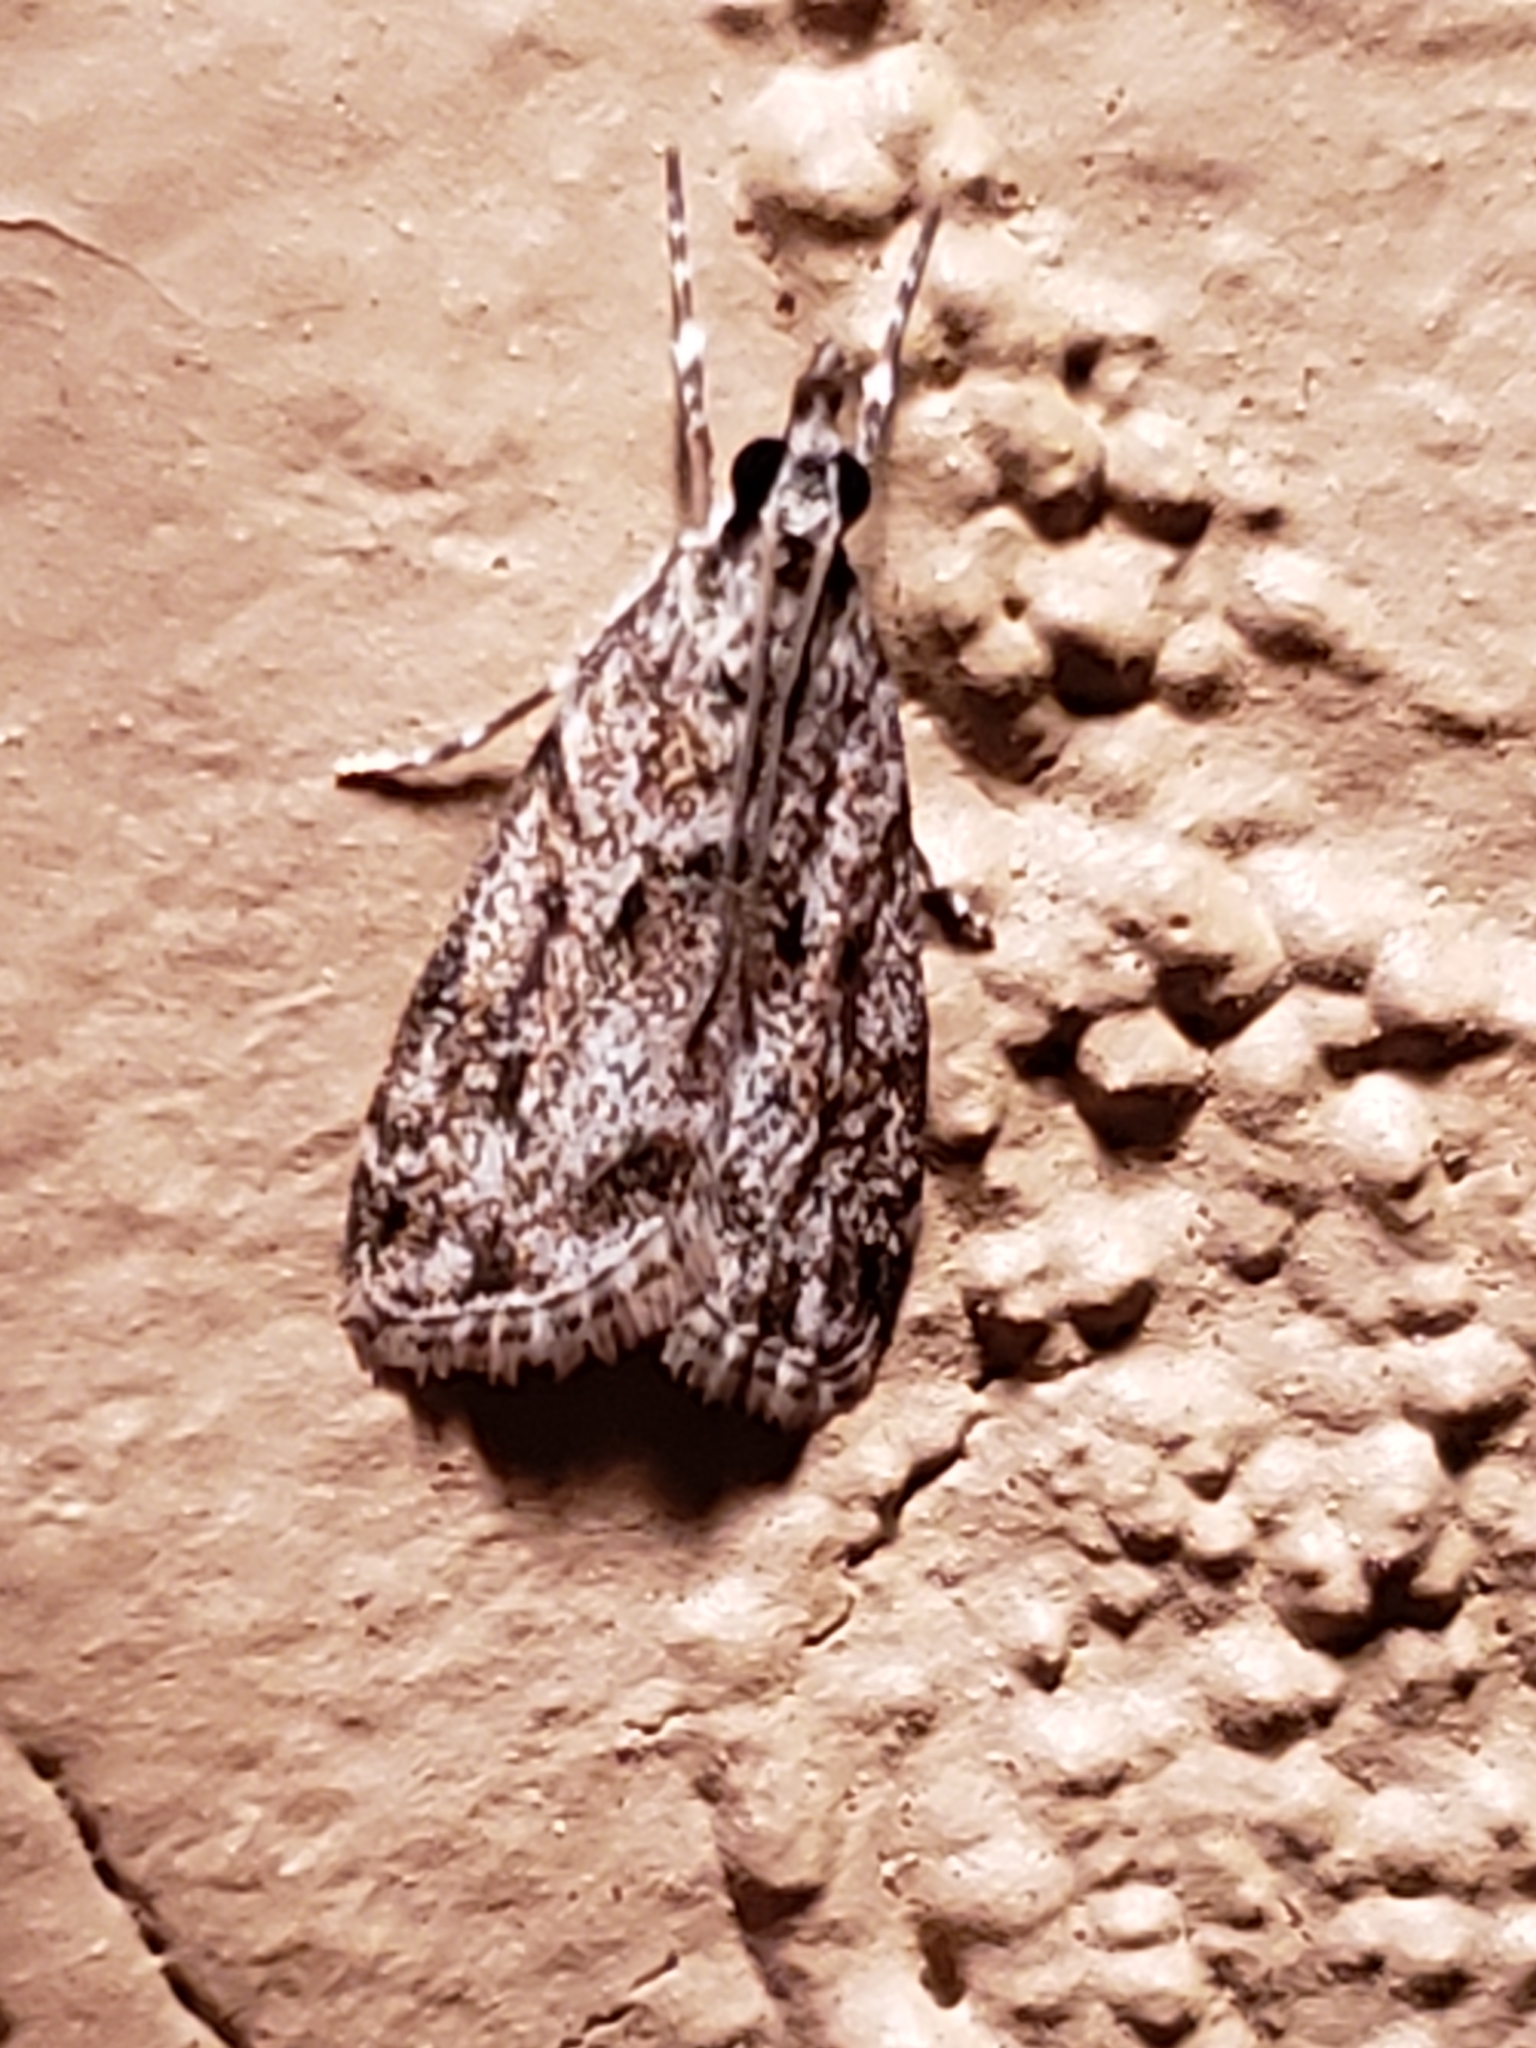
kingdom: Animalia
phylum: Arthropoda
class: Insecta
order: Lepidoptera
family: Crambidae
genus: Eudonia
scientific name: Eudonia heterosalis
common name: Mcdunnough's eudonia
